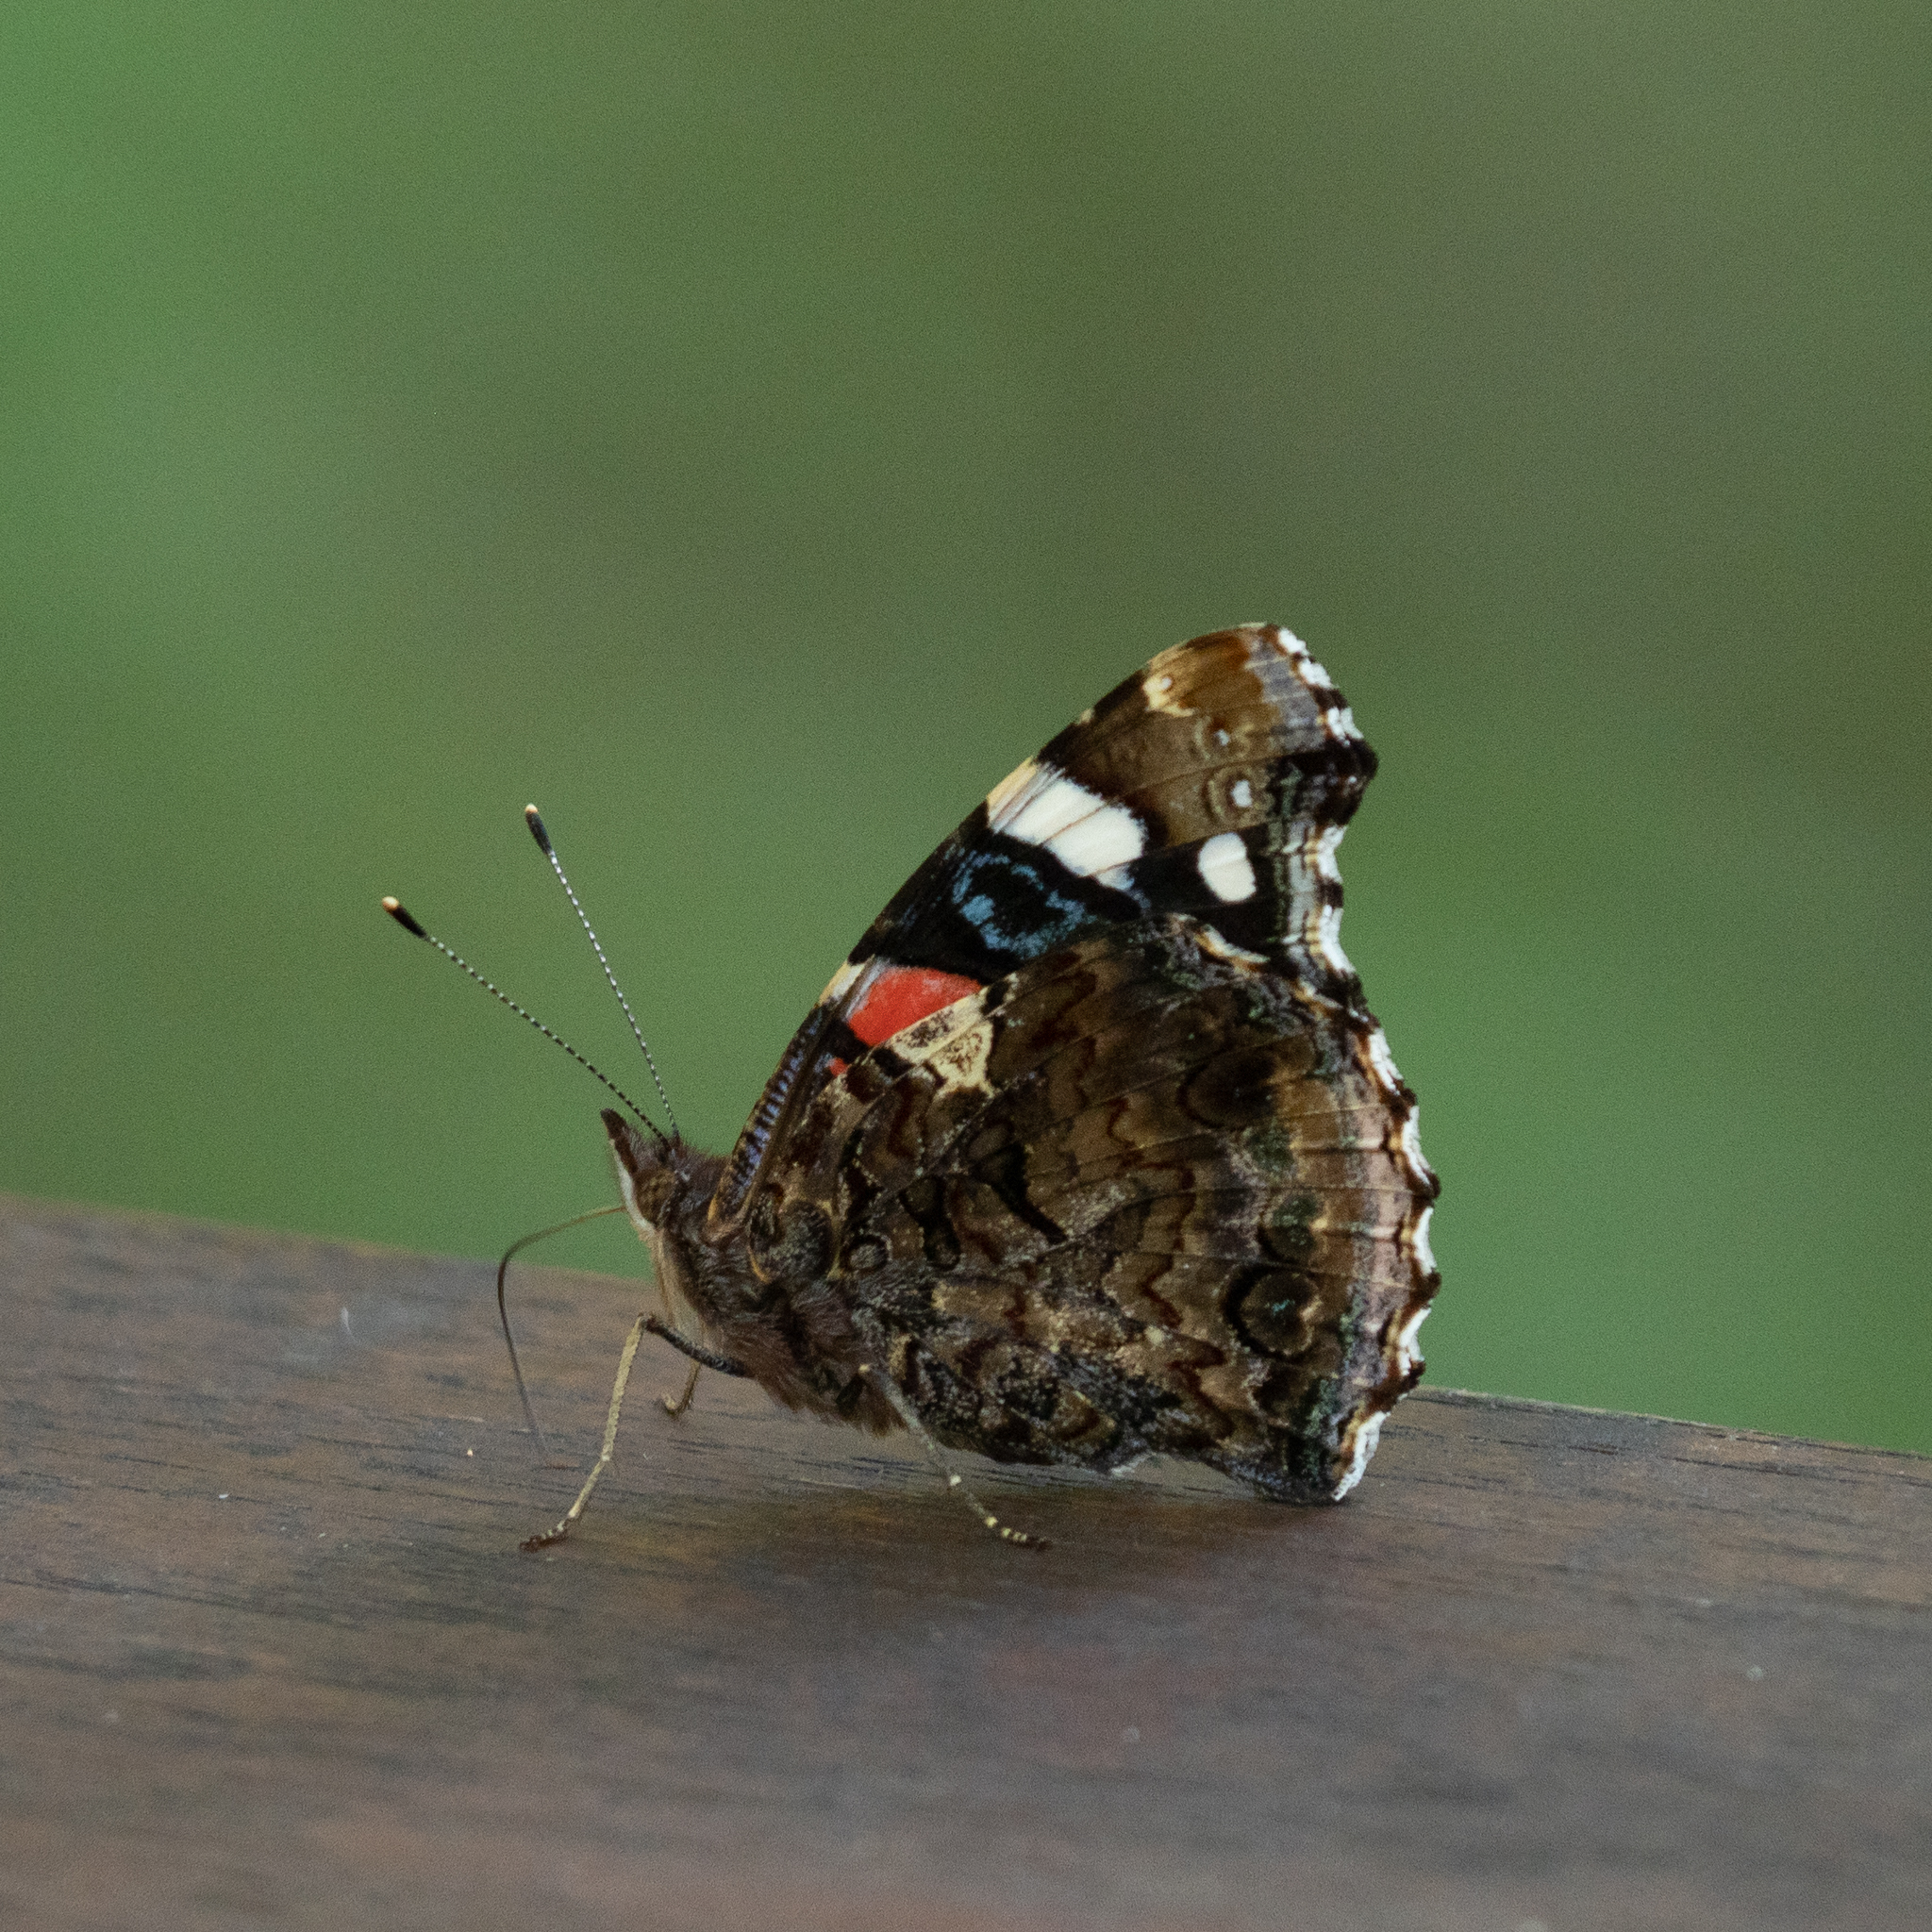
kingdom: Animalia
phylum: Arthropoda
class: Insecta
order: Lepidoptera
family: Nymphalidae
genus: Vanessa
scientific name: Vanessa atalanta
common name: Red admiral
